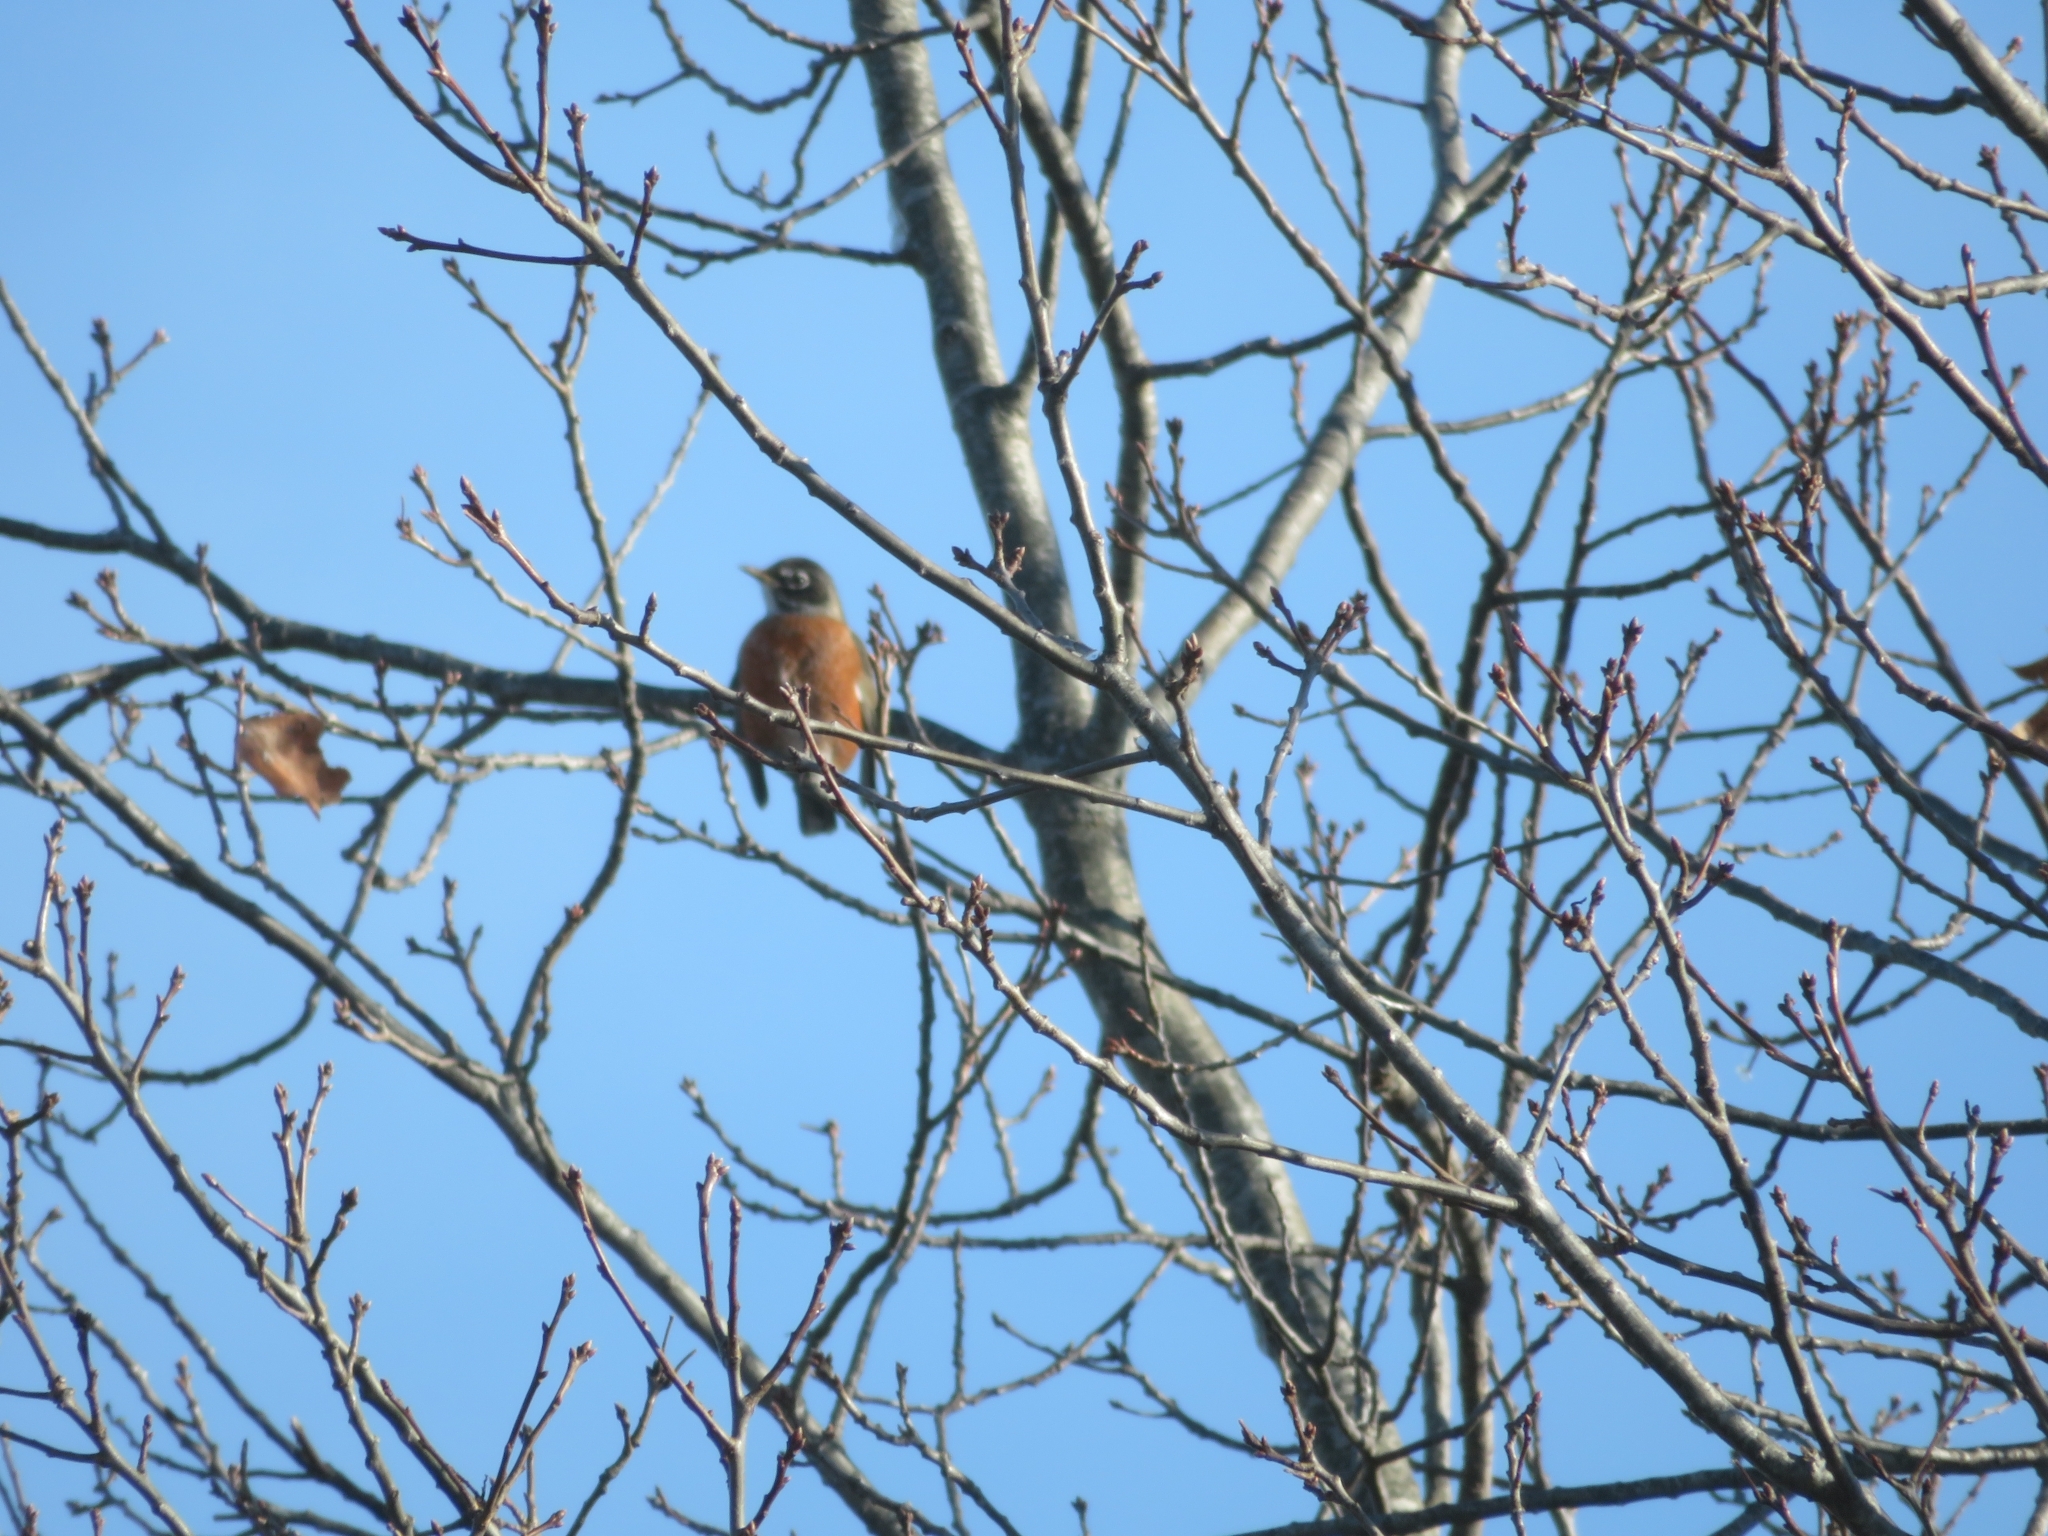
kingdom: Animalia
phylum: Chordata
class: Aves
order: Passeriformes
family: Turdidae
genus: Turdus
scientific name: Turdus migratorius
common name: American robin
